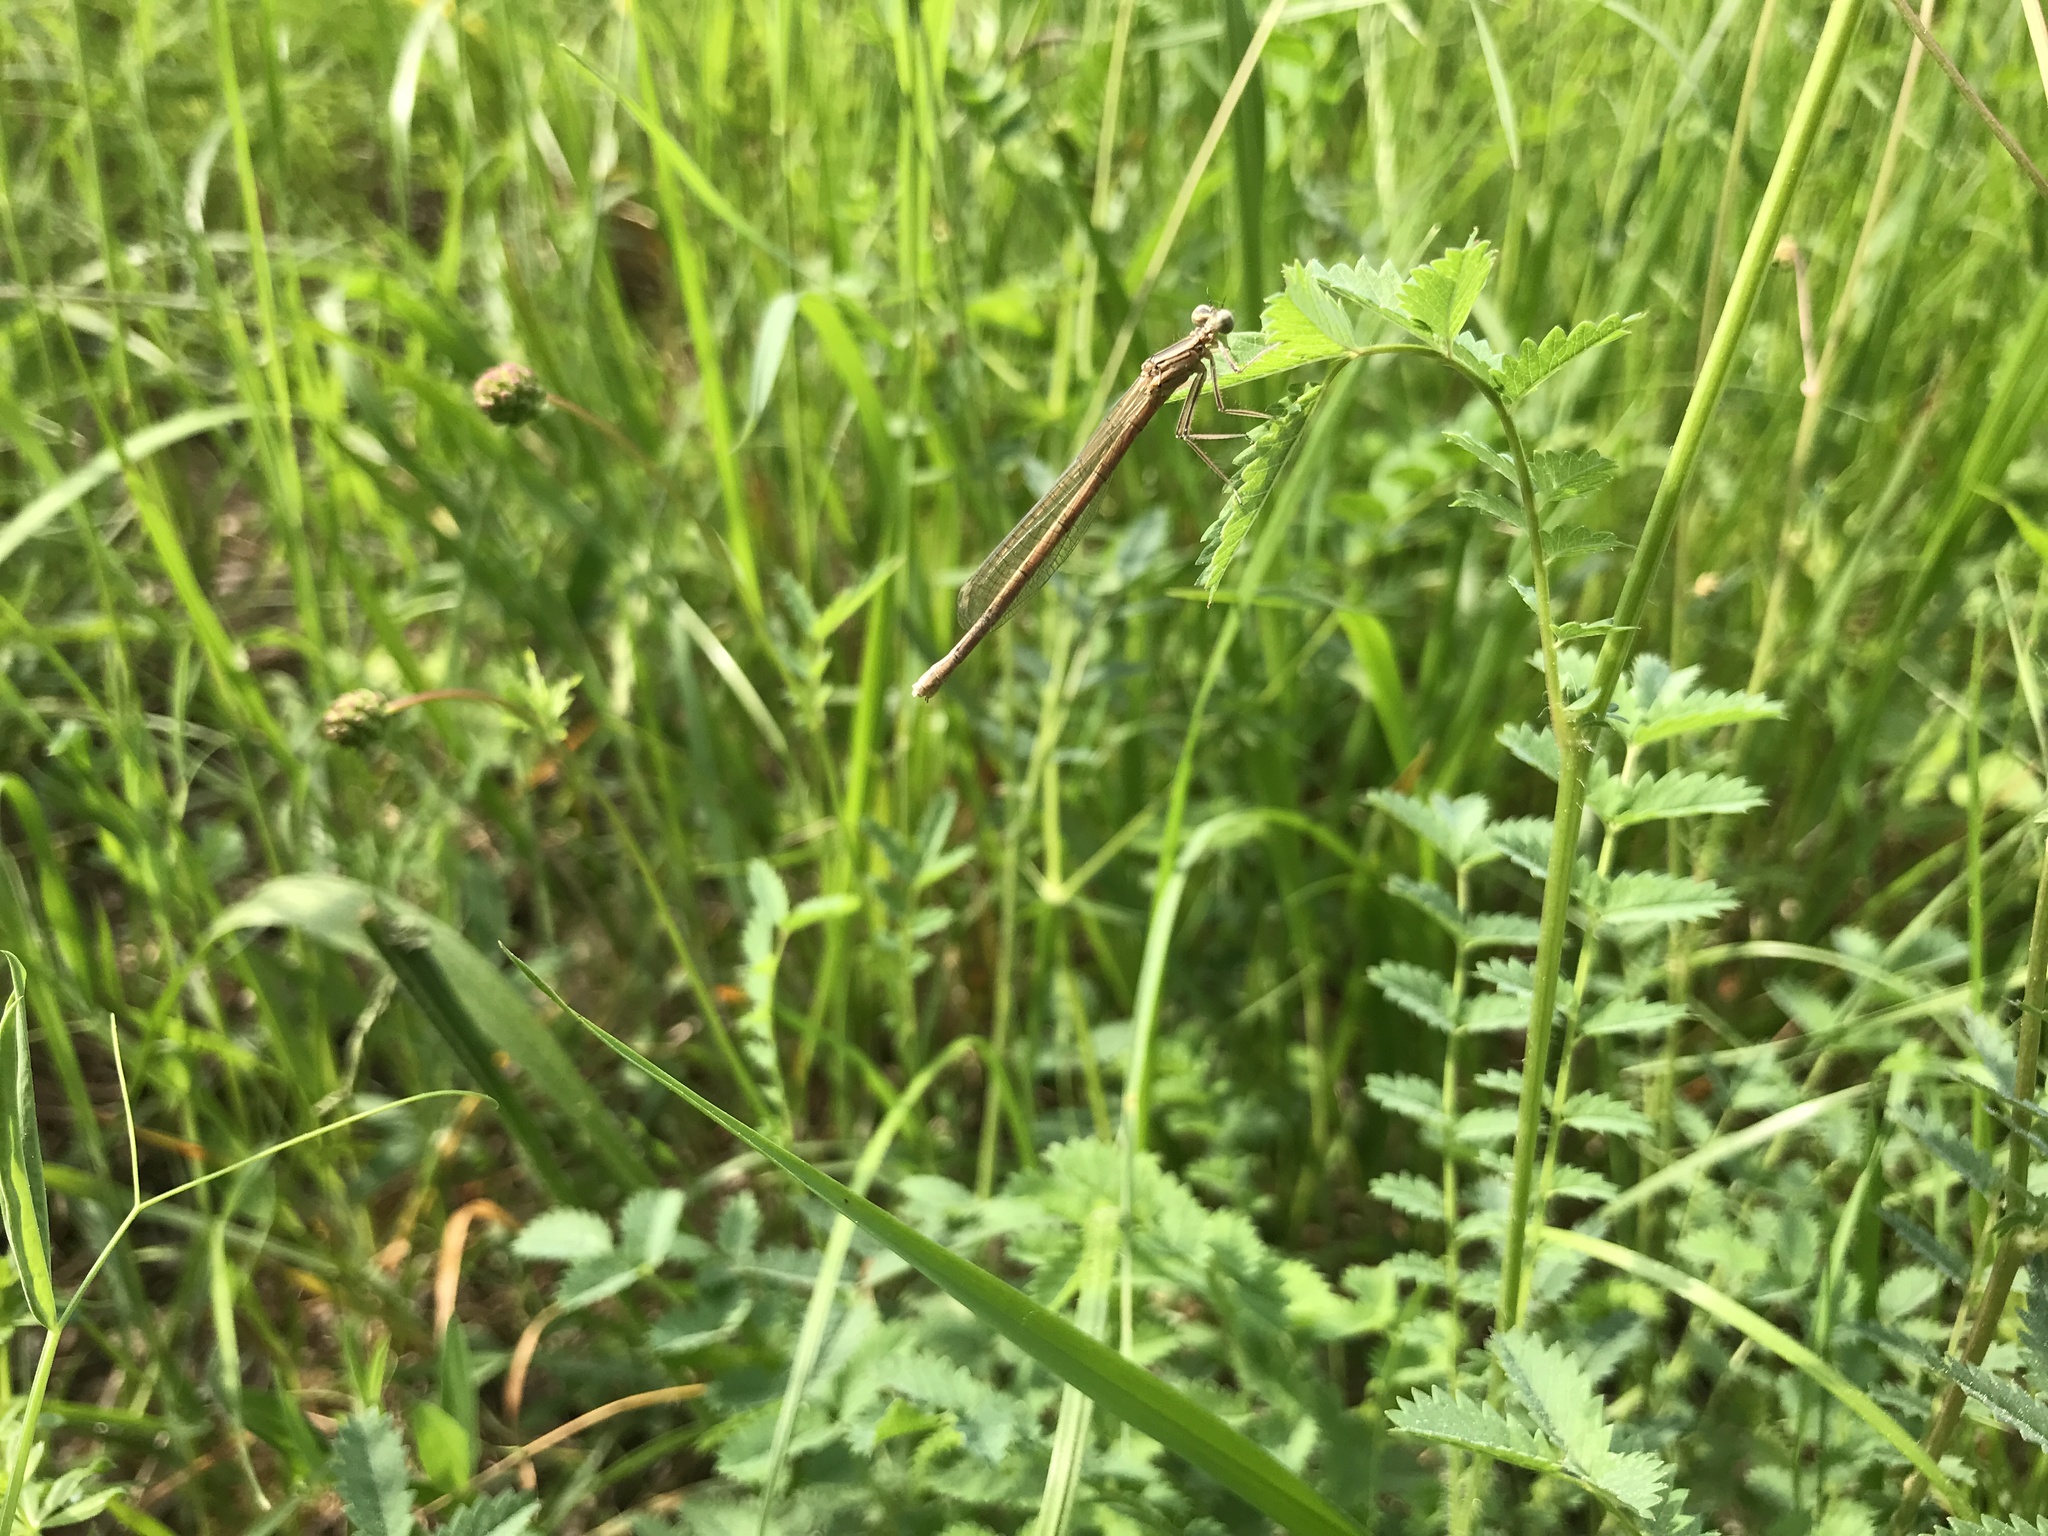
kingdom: Animalia
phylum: Arthropoda
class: Insecta
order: Odonata
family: Platycnemididae
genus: Platycnemis
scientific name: Platycnemis pennipes
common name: White-legged damselfly
